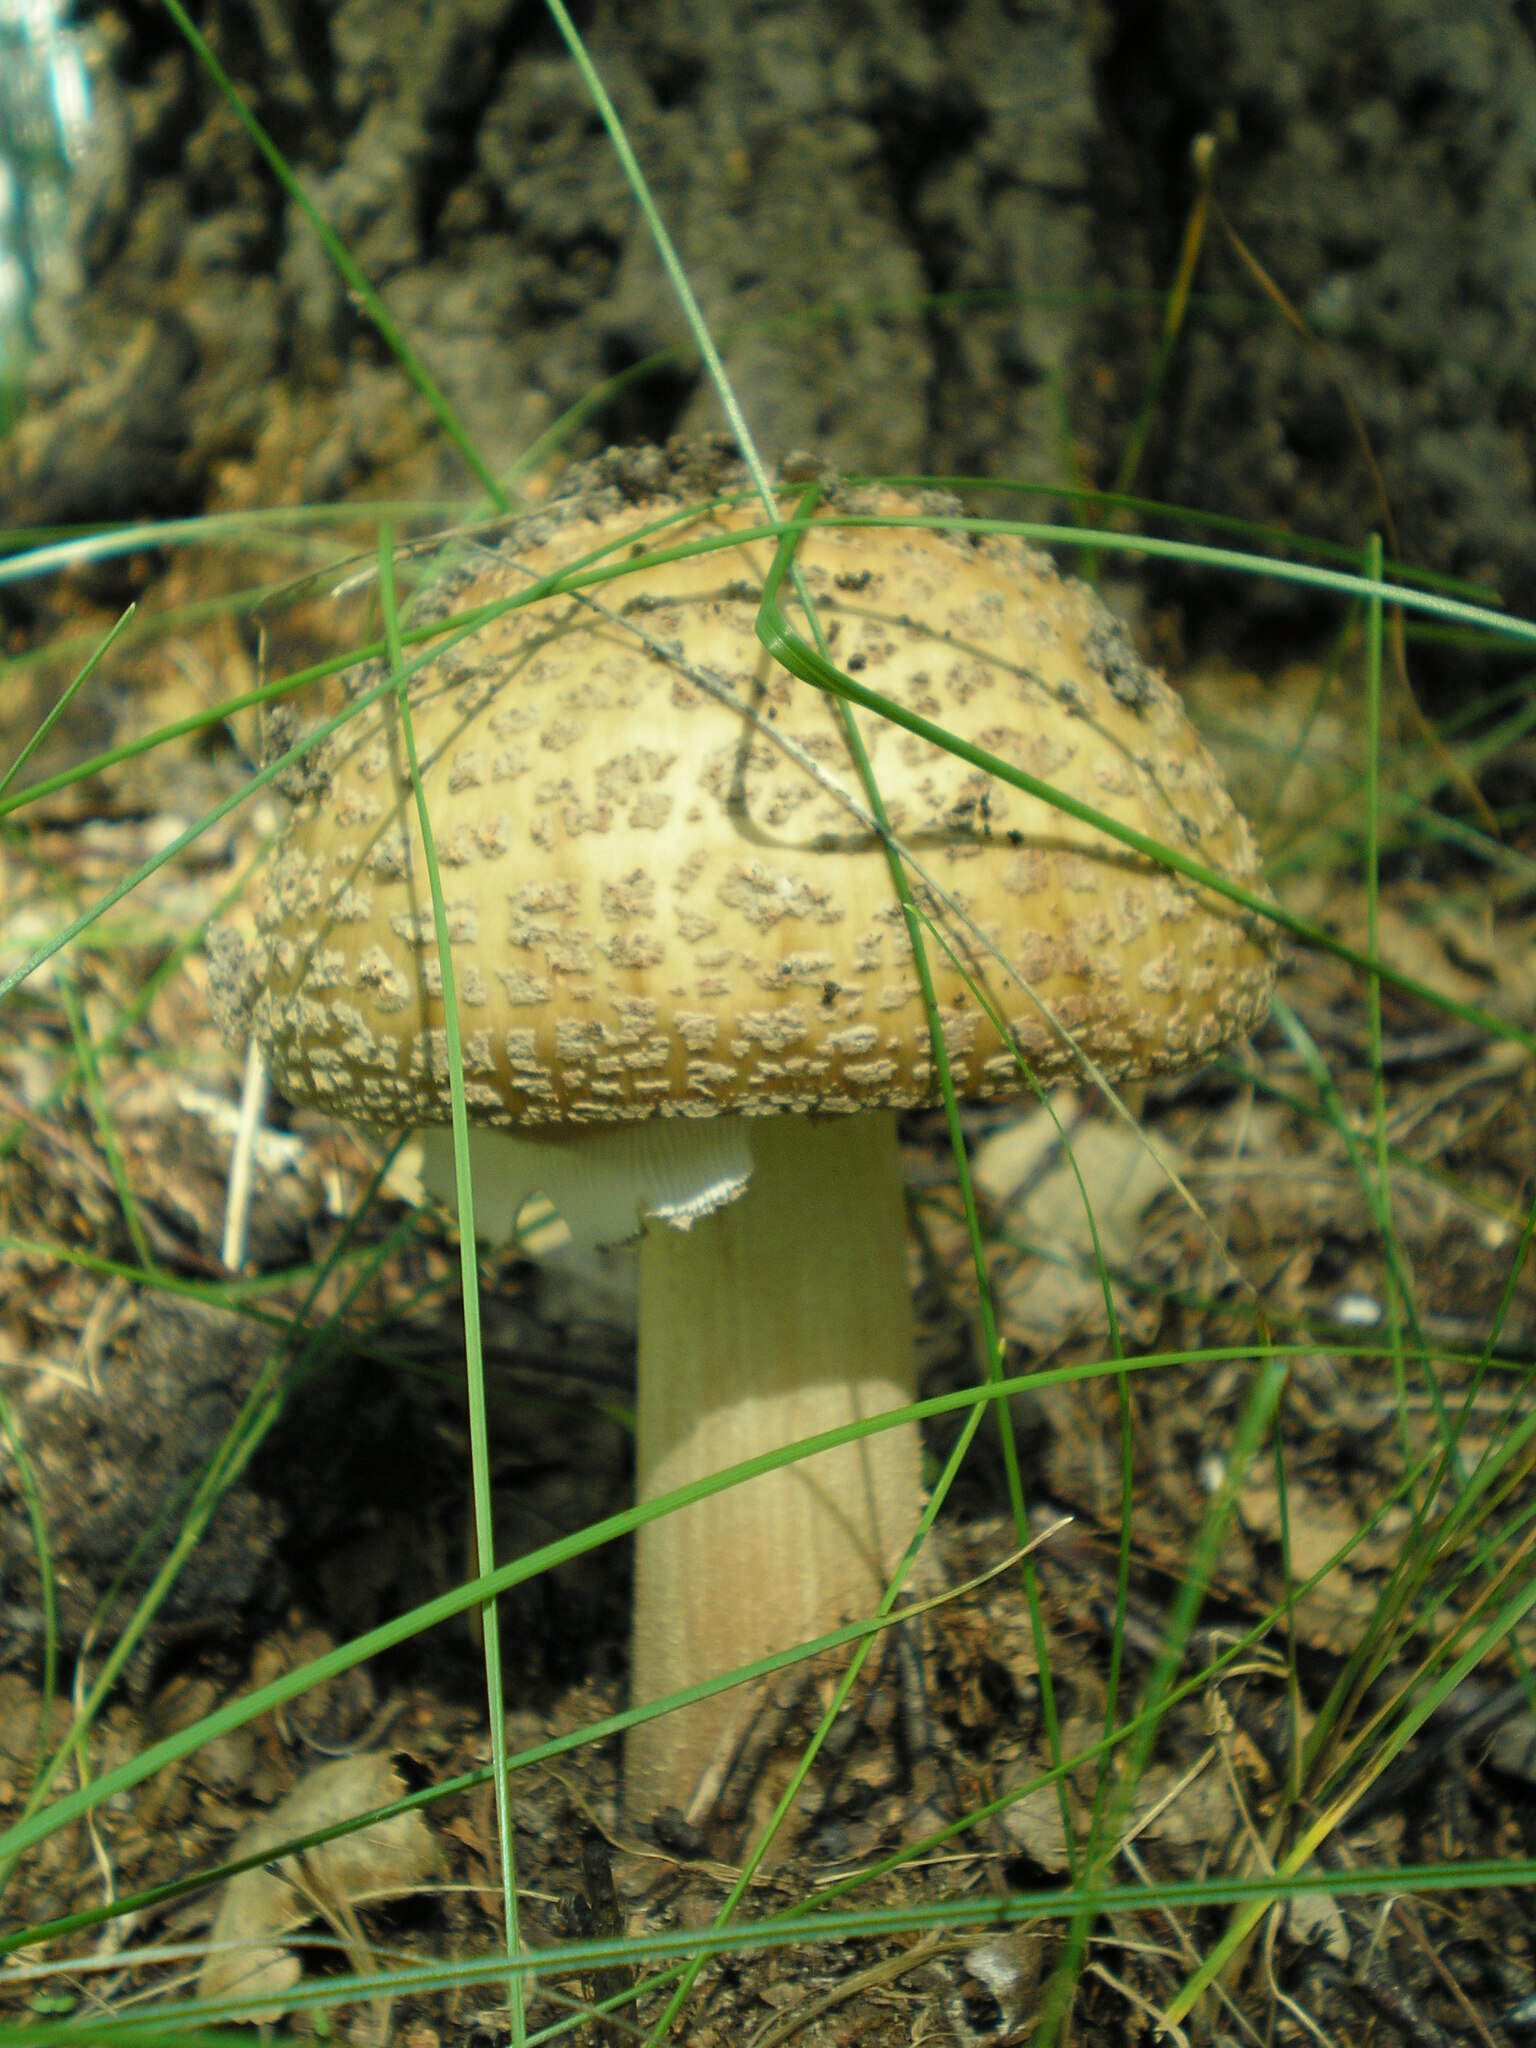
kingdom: Fungi
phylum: Basidiomycota
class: Agaricomycetes
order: Agaricales
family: Amanitaceae
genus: Amanita
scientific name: Amanita rubescens
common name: Blusher
